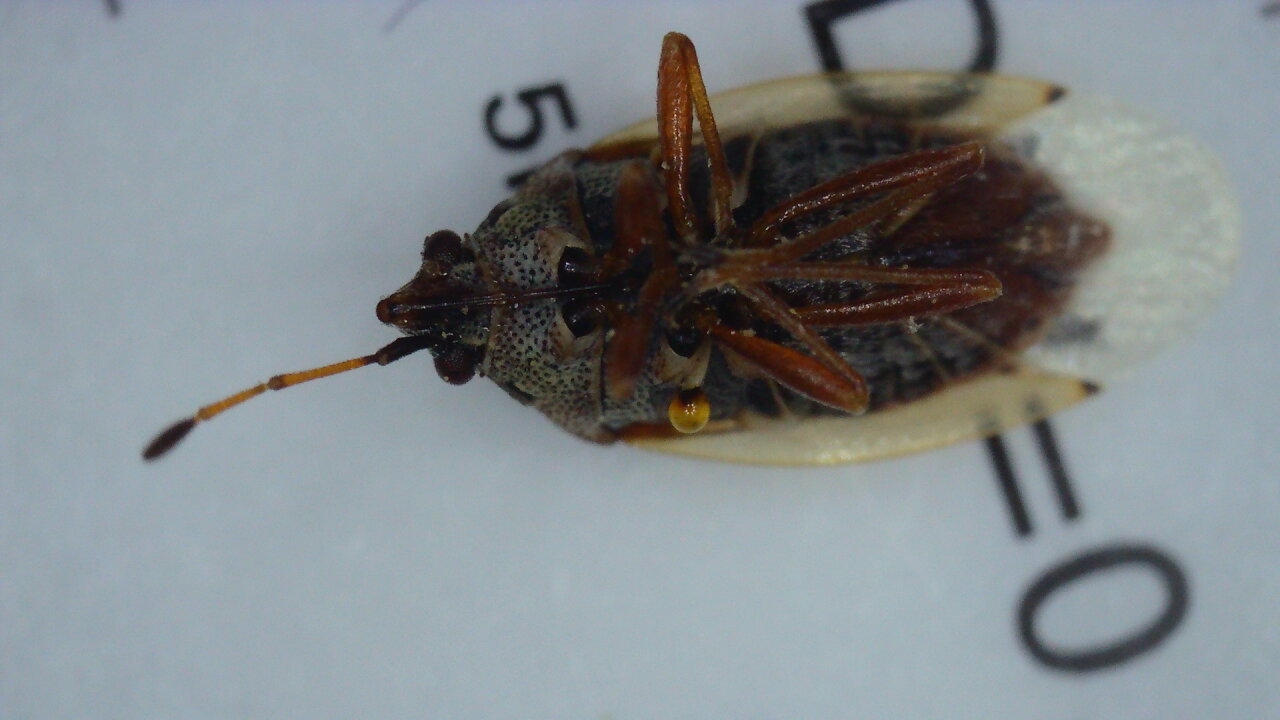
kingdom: Animalia
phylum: Arthropoda
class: Insecta
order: Hemiptera
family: Lygaeidae
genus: Kleidocerys
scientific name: Kleidocerys resedae
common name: Birch catkin bug
